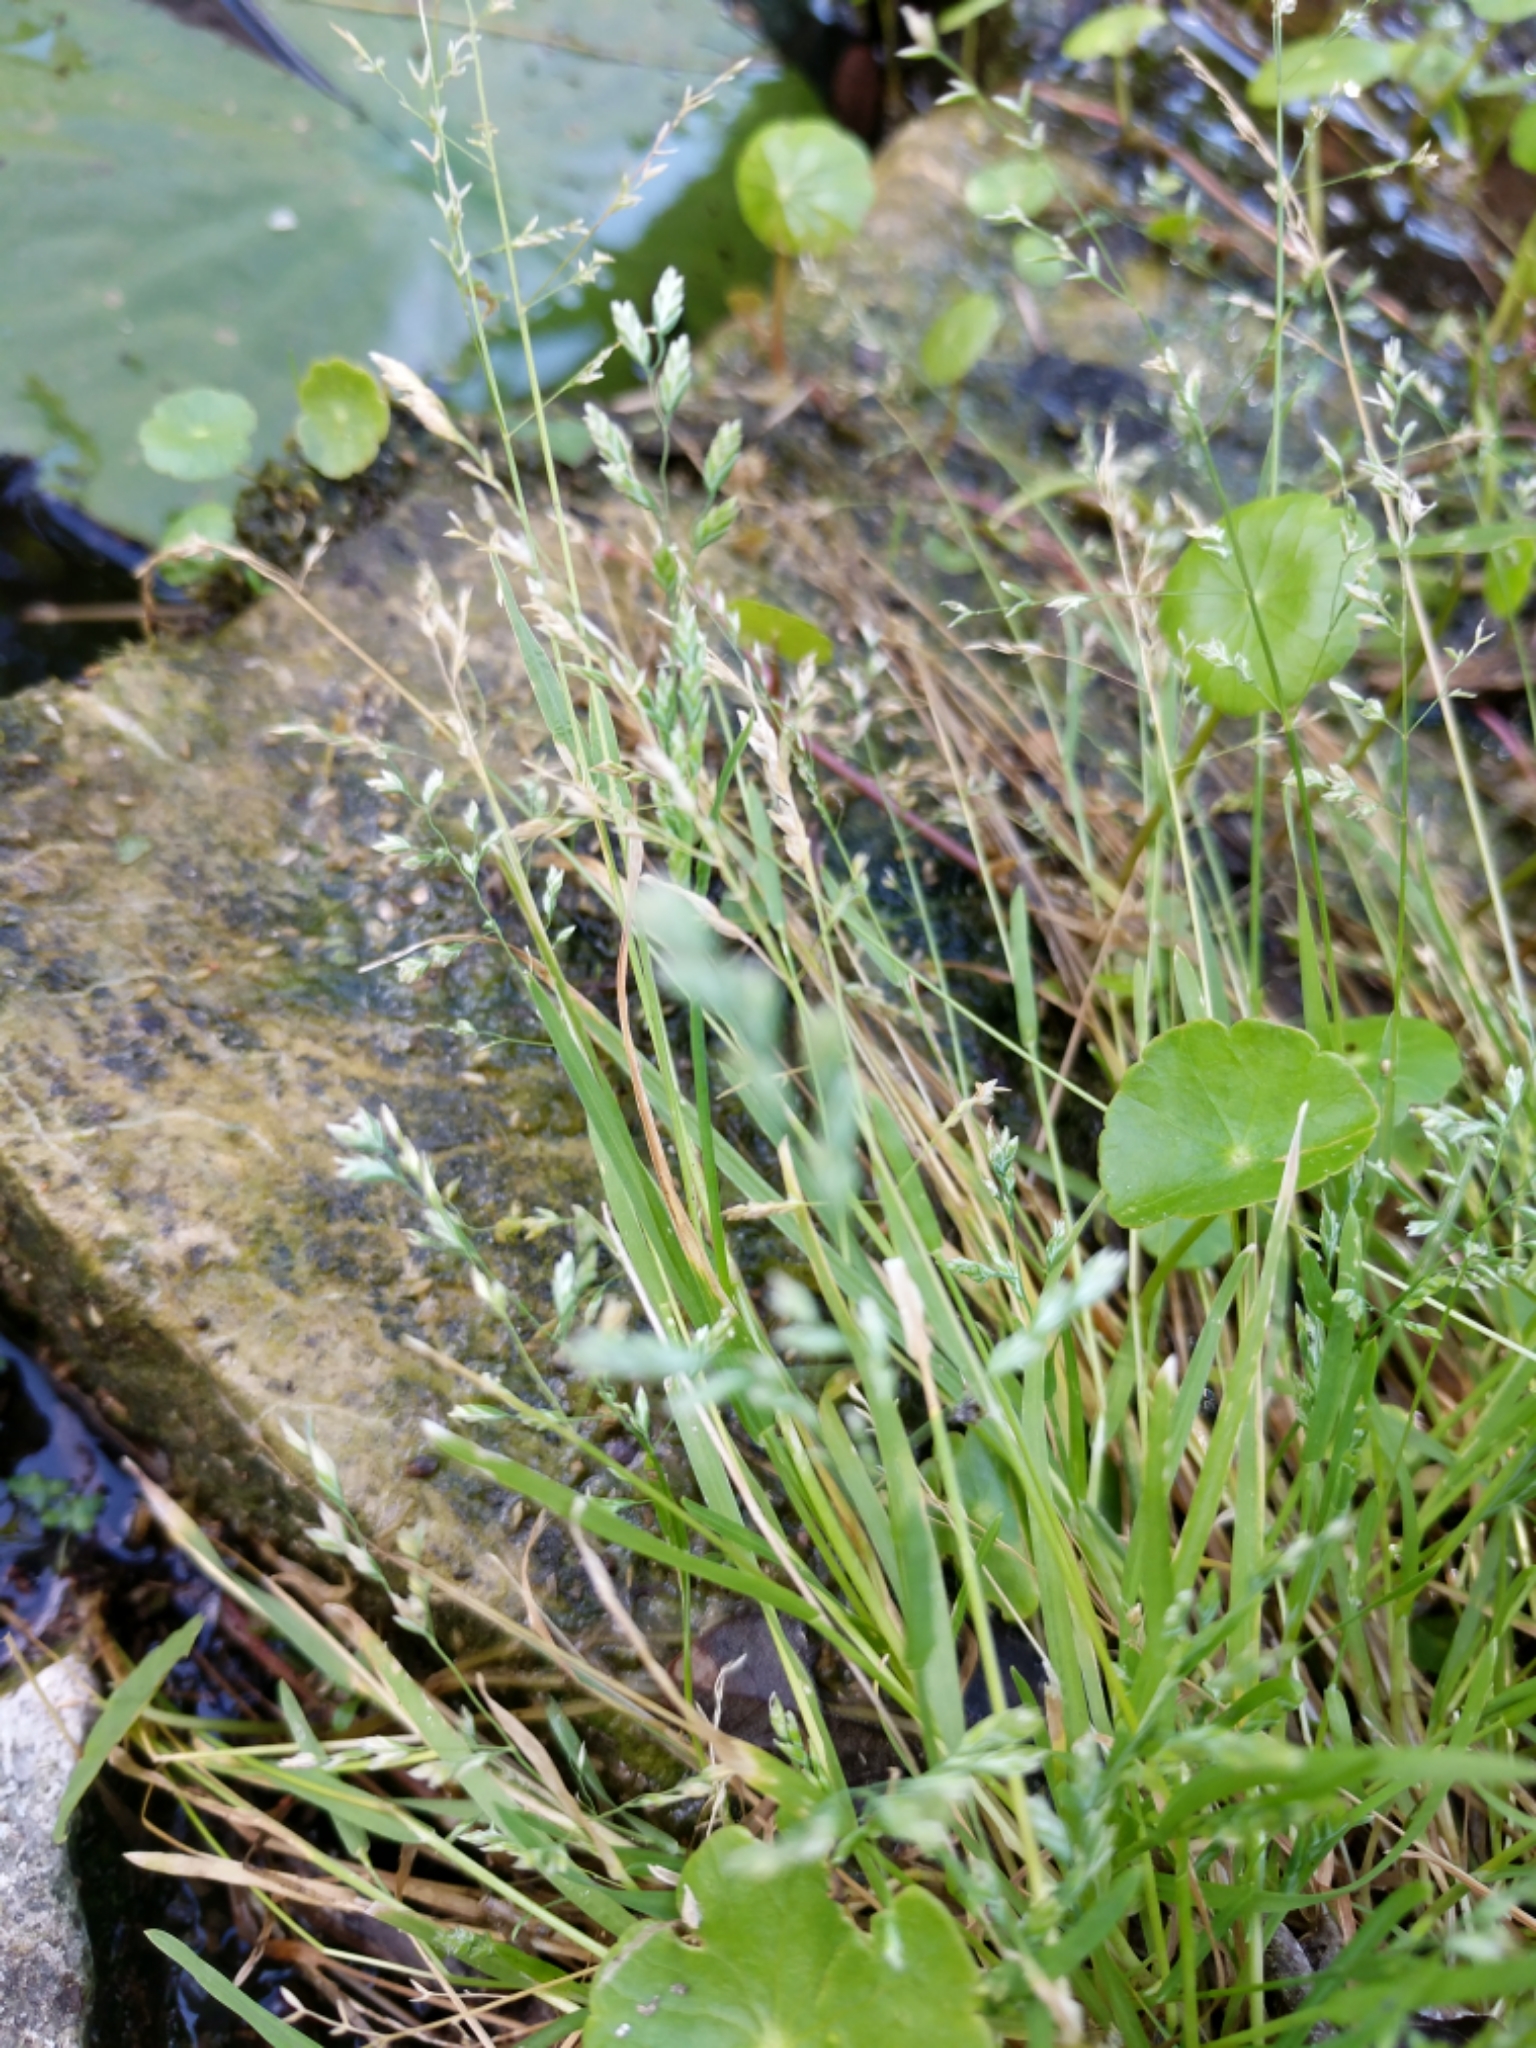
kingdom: Plantae
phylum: Tracheophyta
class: Liliopsida
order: Poales
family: Poaceae
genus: Poa
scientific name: Poa annua
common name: Annual bluegrass
